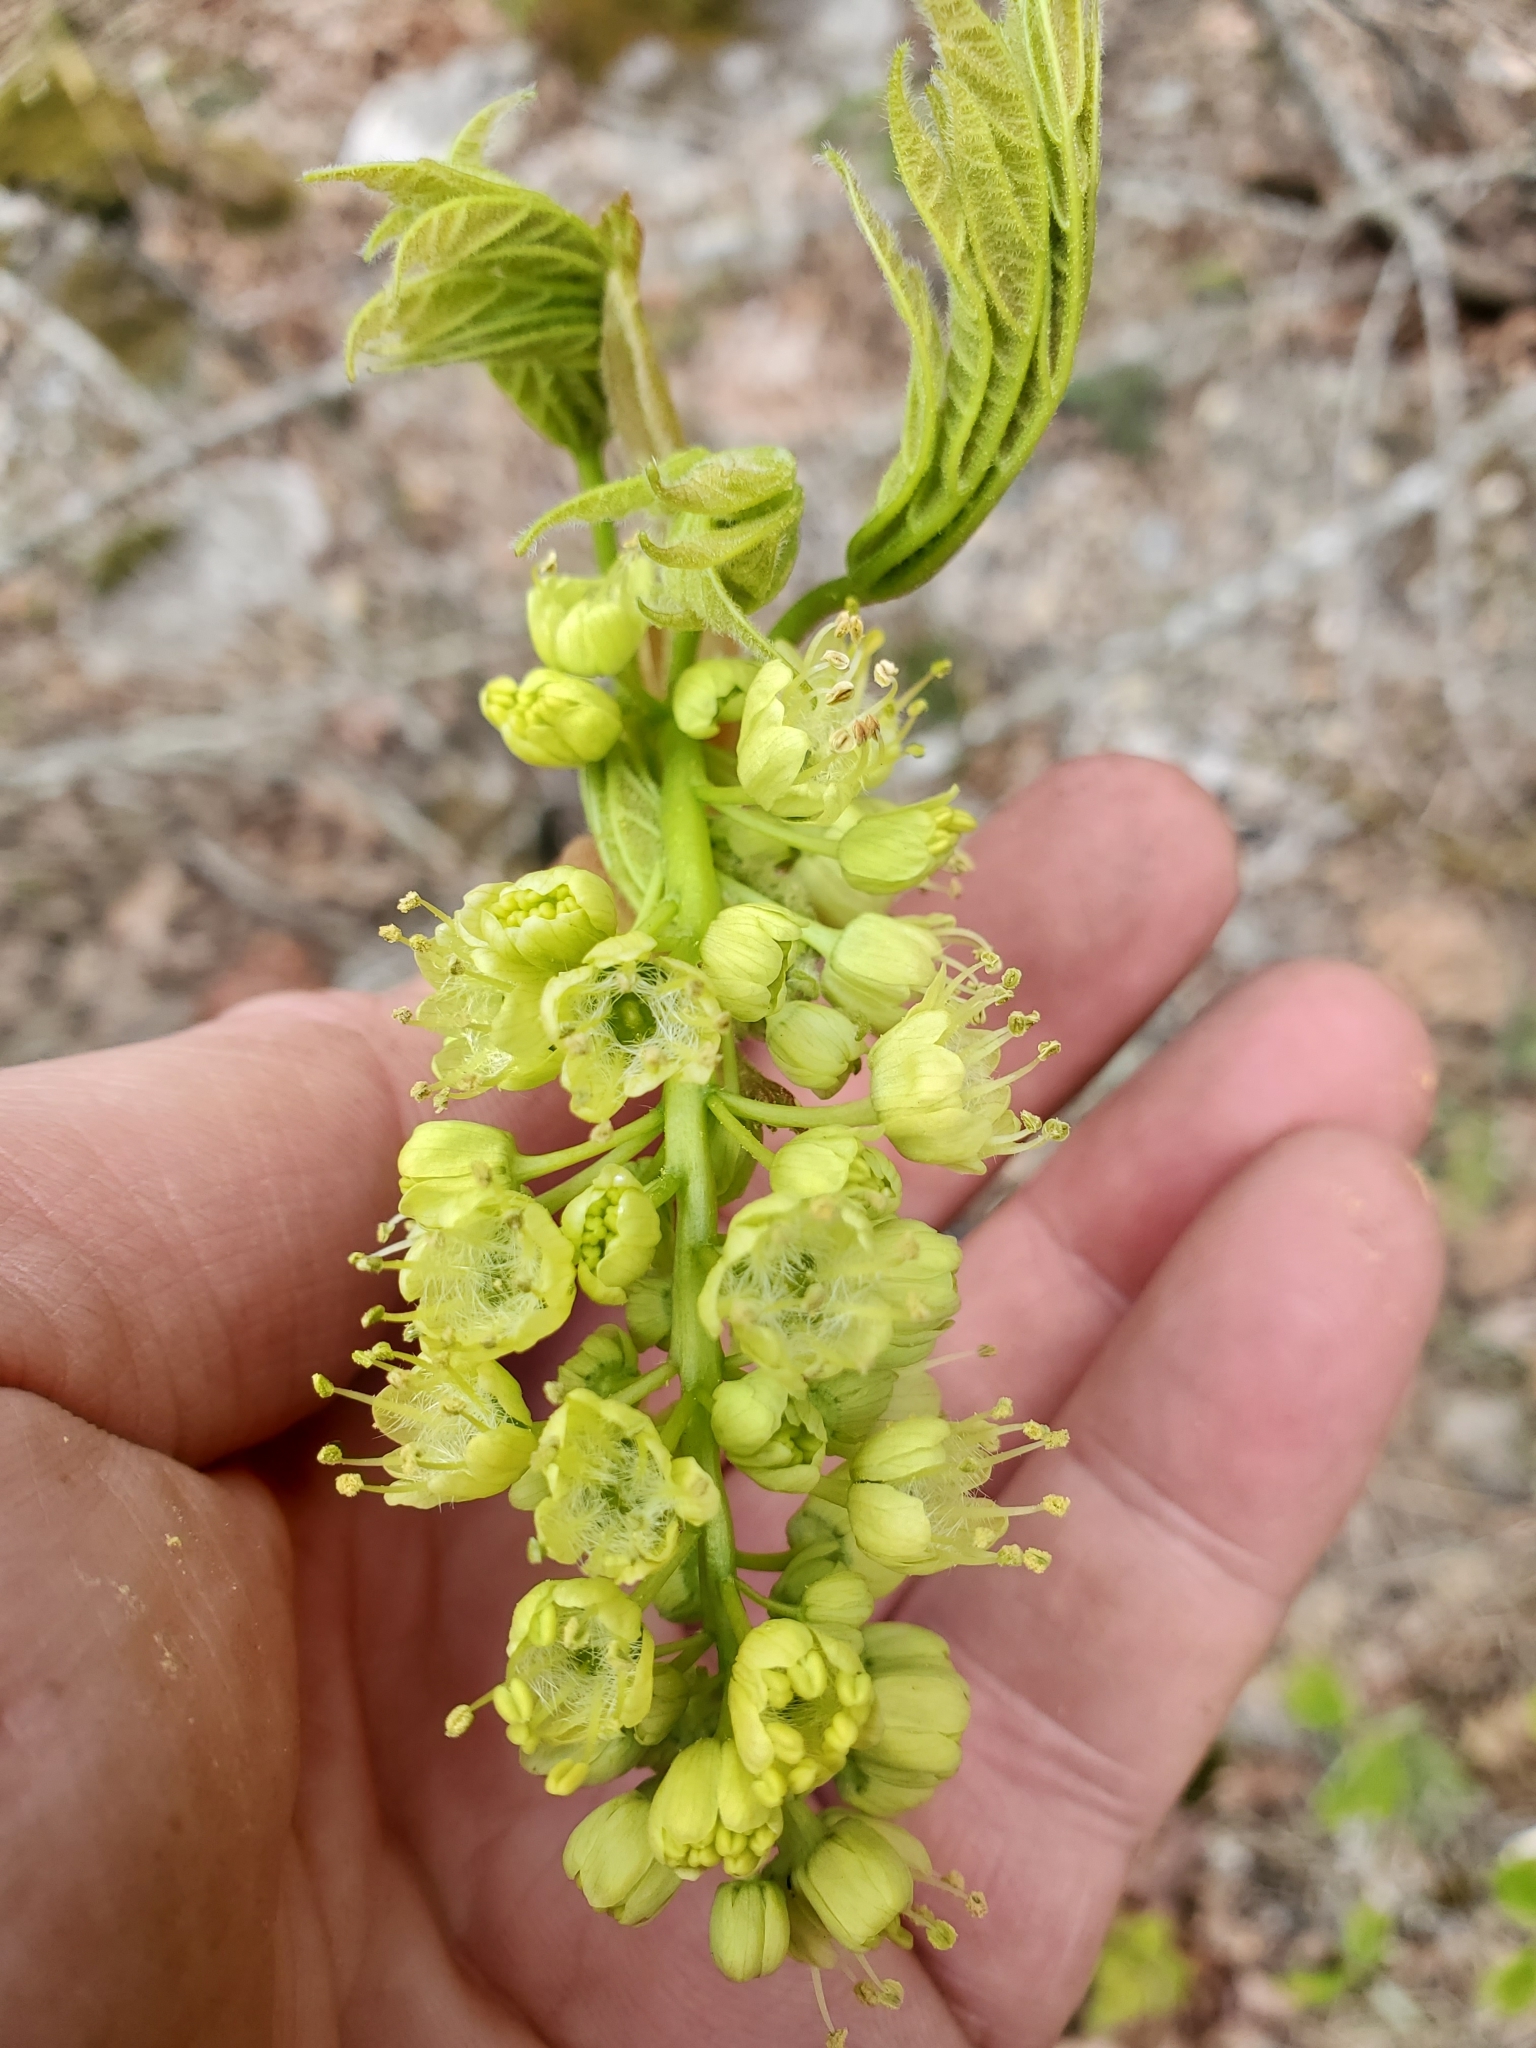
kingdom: Plantae
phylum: Tracheophyta
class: Magnoliopsida
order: Sapindales
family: Sapindaceae
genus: Acer
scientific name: Acer macrophyllum
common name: Oregon maple
